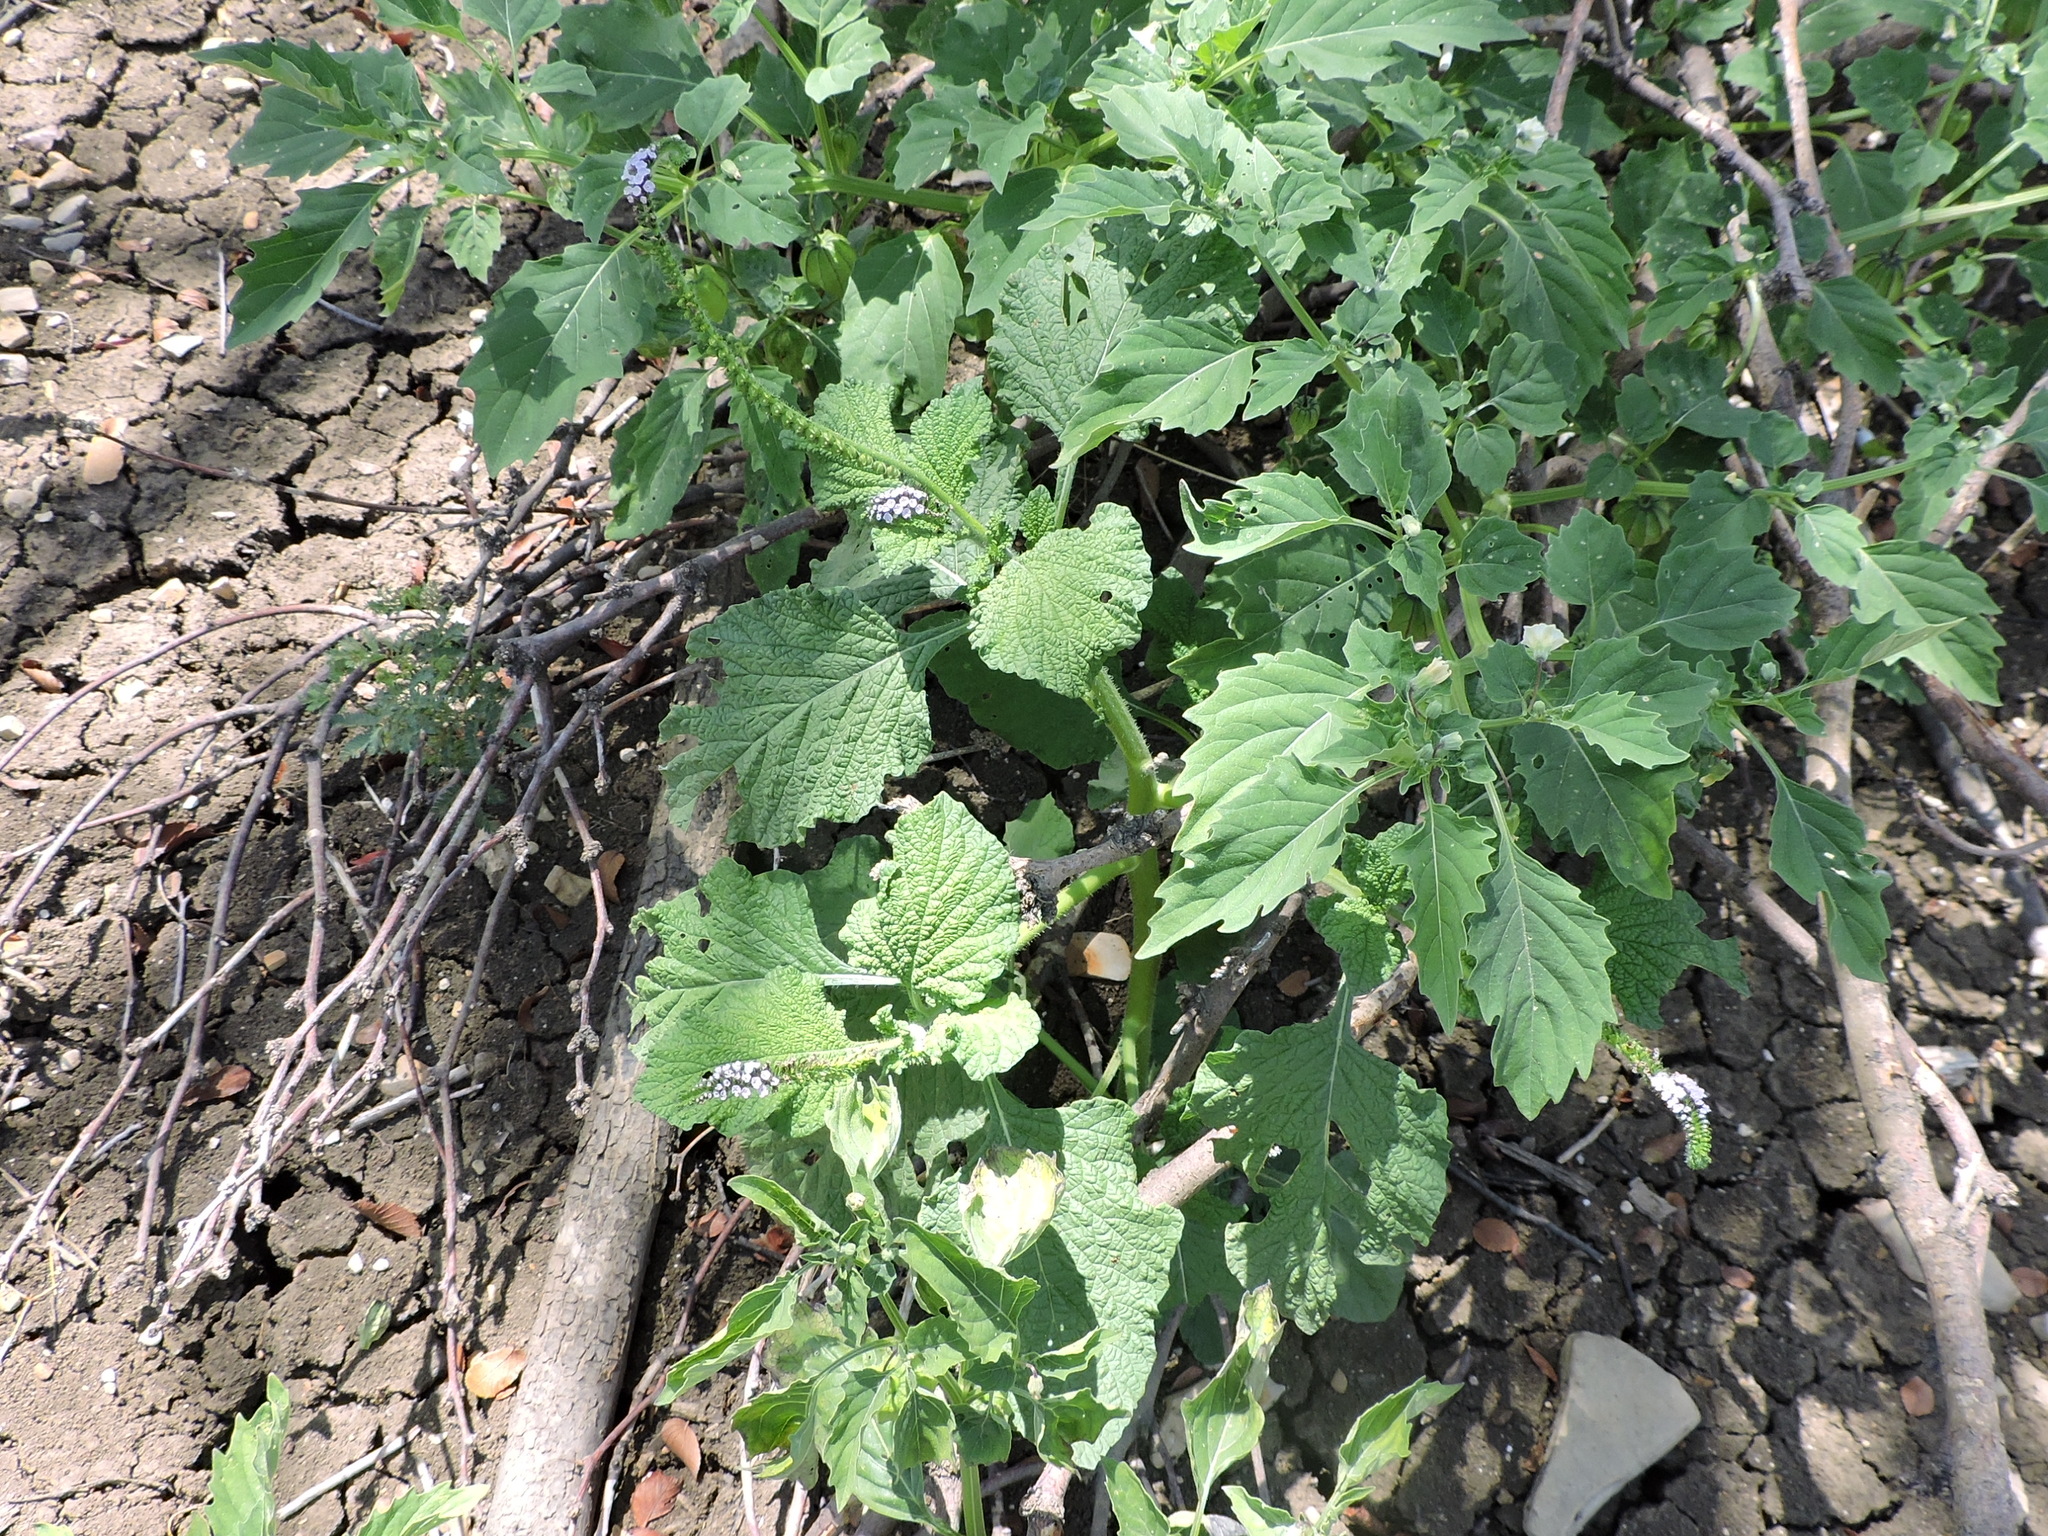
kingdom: Plantae
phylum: Tracheophyta
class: Magnoliopsida
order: Boraginales
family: Heliotropiaceae
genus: Heliotropium
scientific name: Heliotropium indicum
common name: Indian heliotrope
